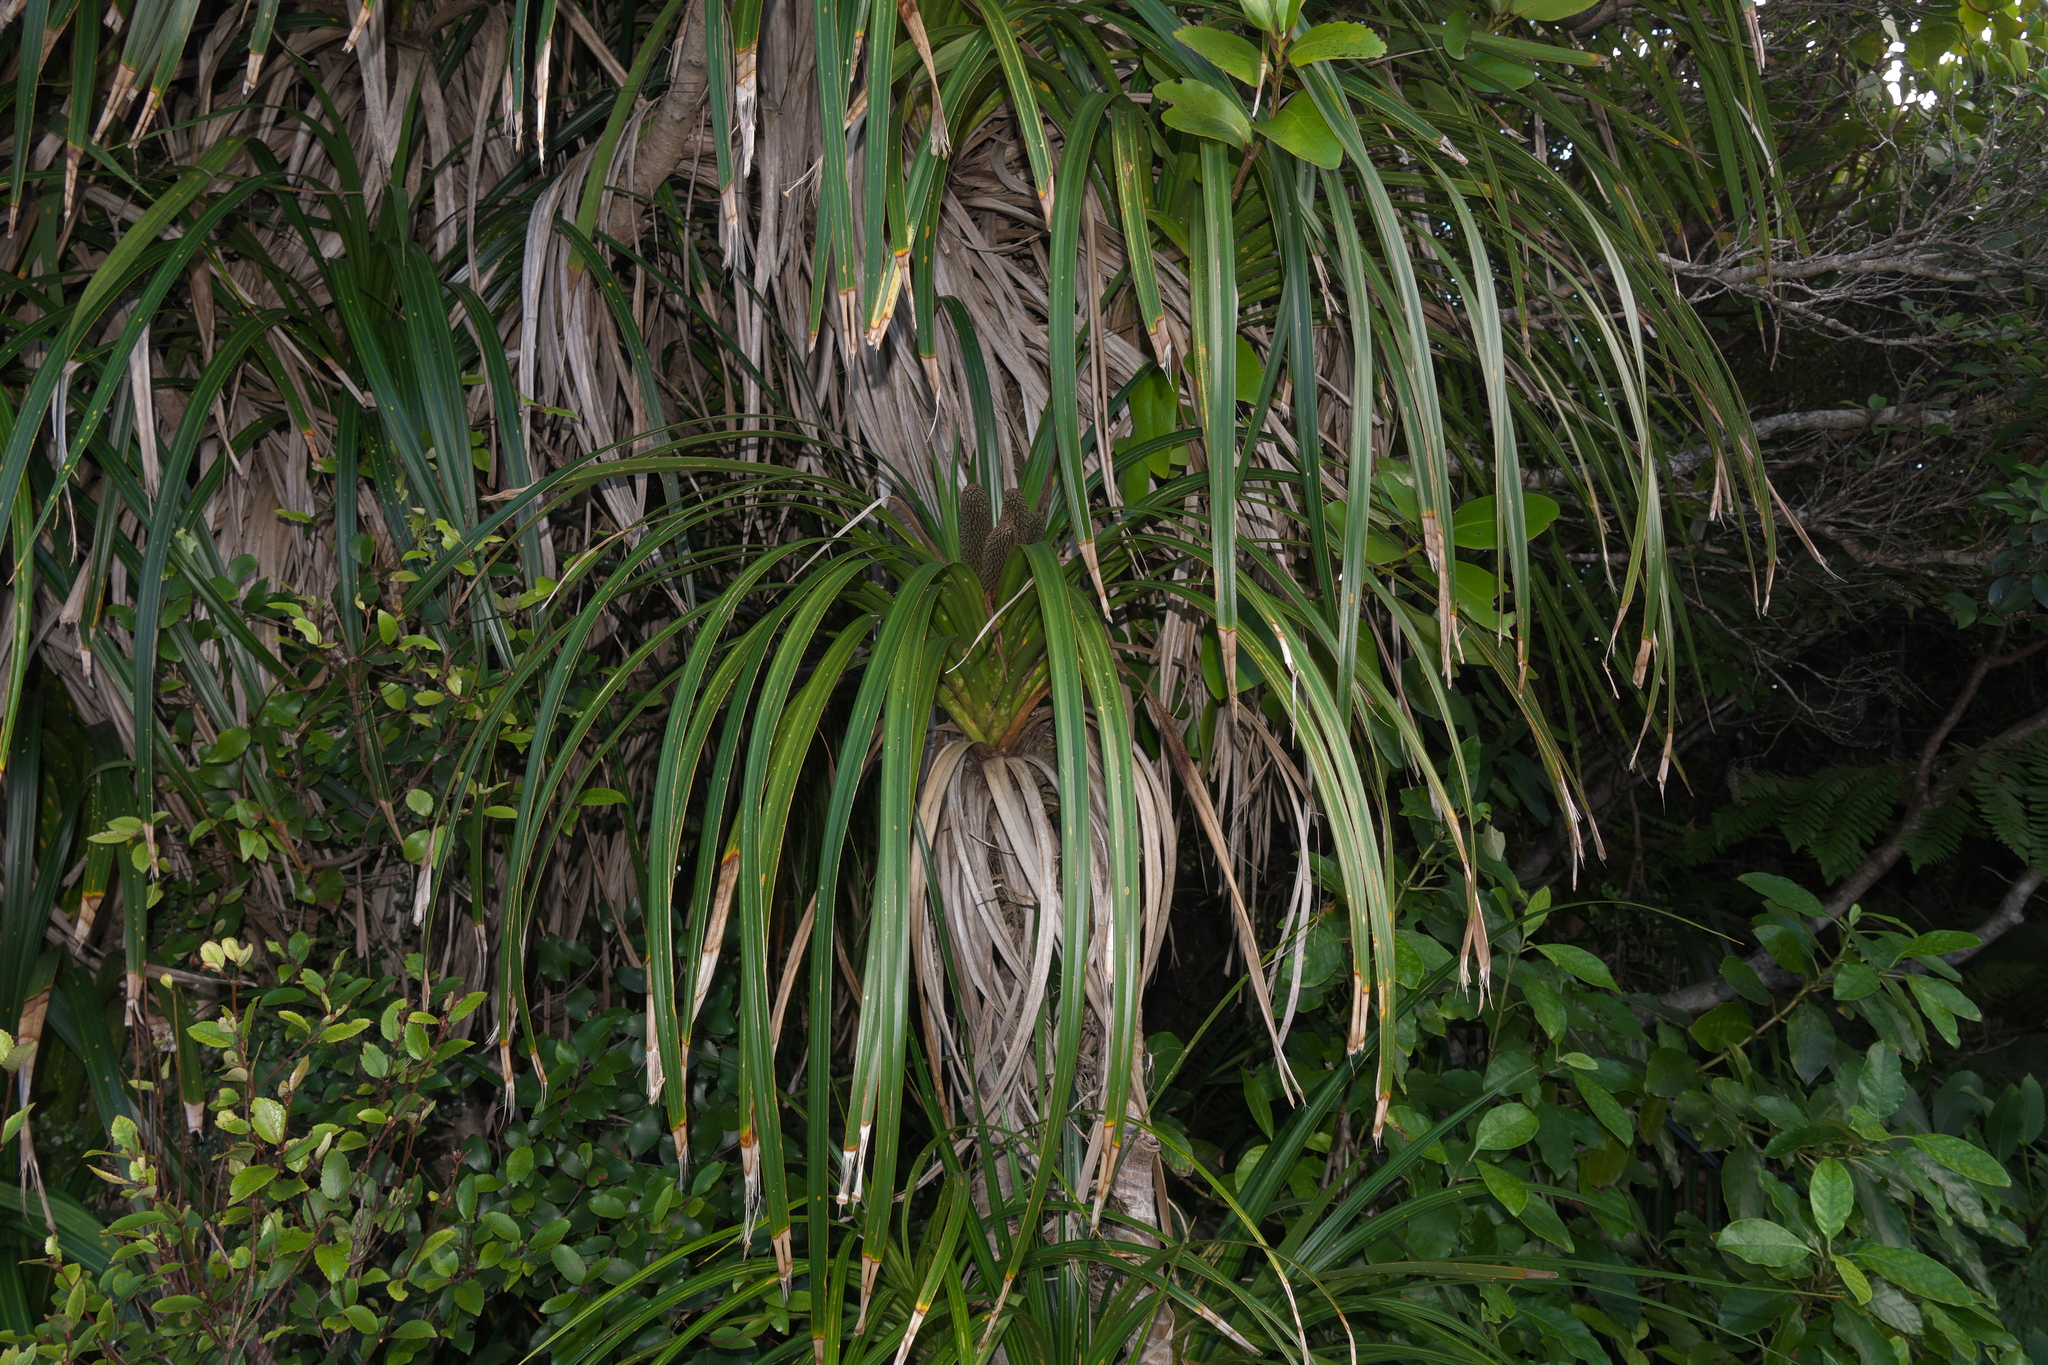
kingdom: Plantae
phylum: Tracheophyta
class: Liliopsida
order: Pandanales
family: Pandanaceae
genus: Freycinetia
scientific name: Freycinetia banksii
